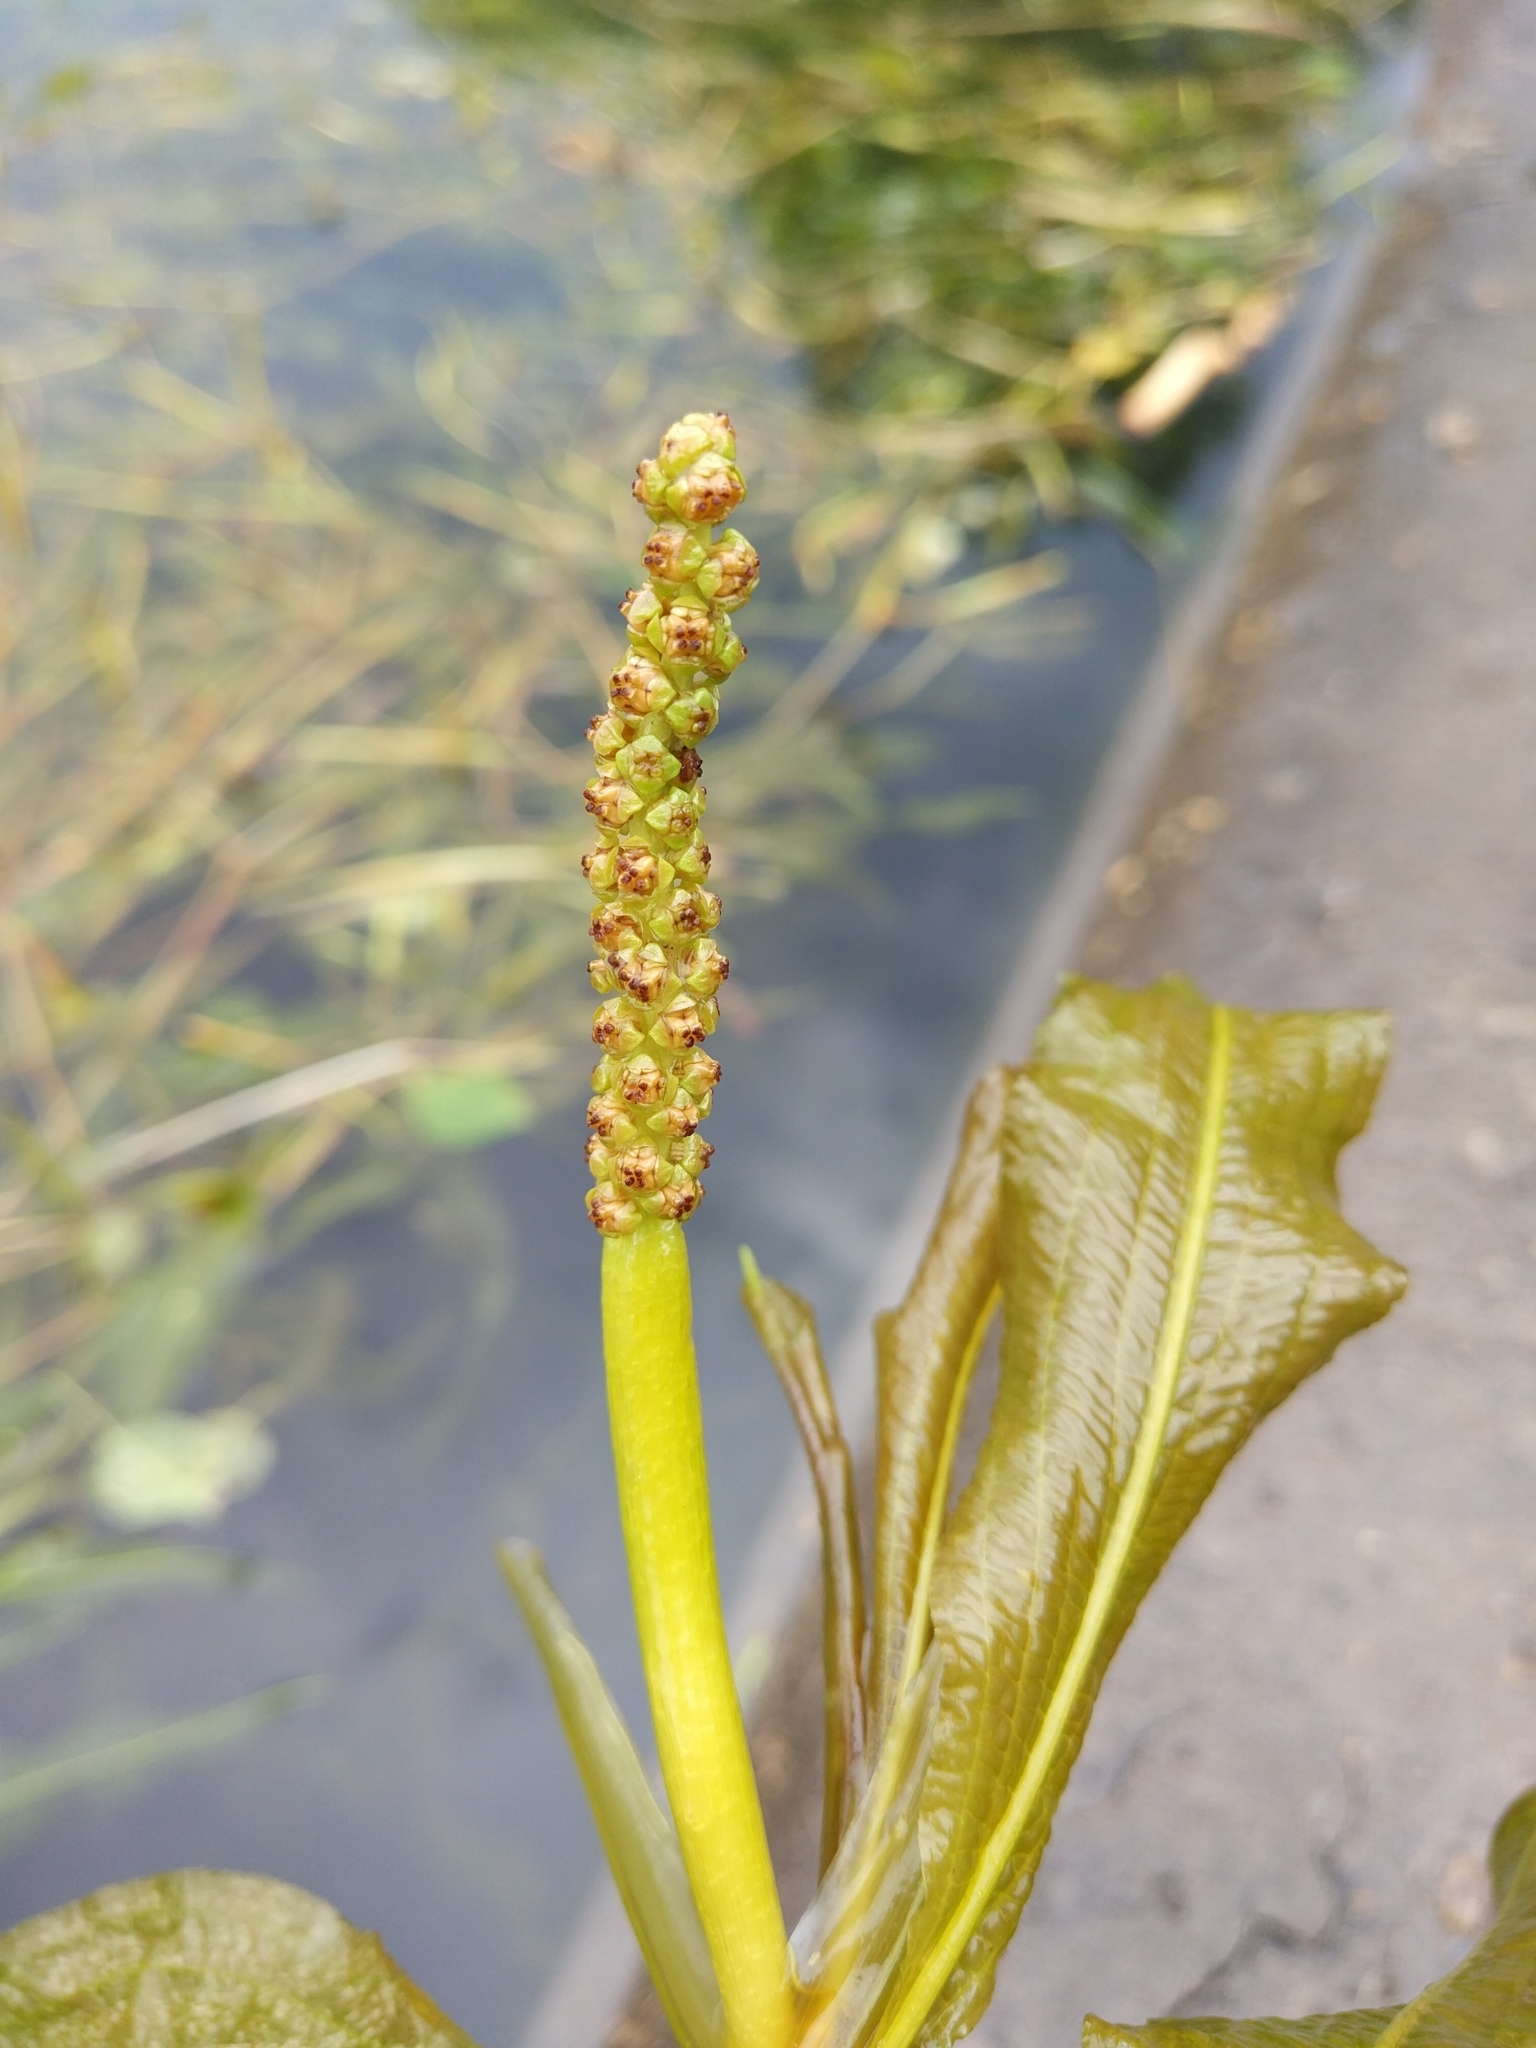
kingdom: Plantae
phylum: Tracheophyta
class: Liliopsida
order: Alismatales
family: Potamogetonaceae
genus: Potamogeton
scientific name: Potamogeton lucens
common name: Shining pondweed
